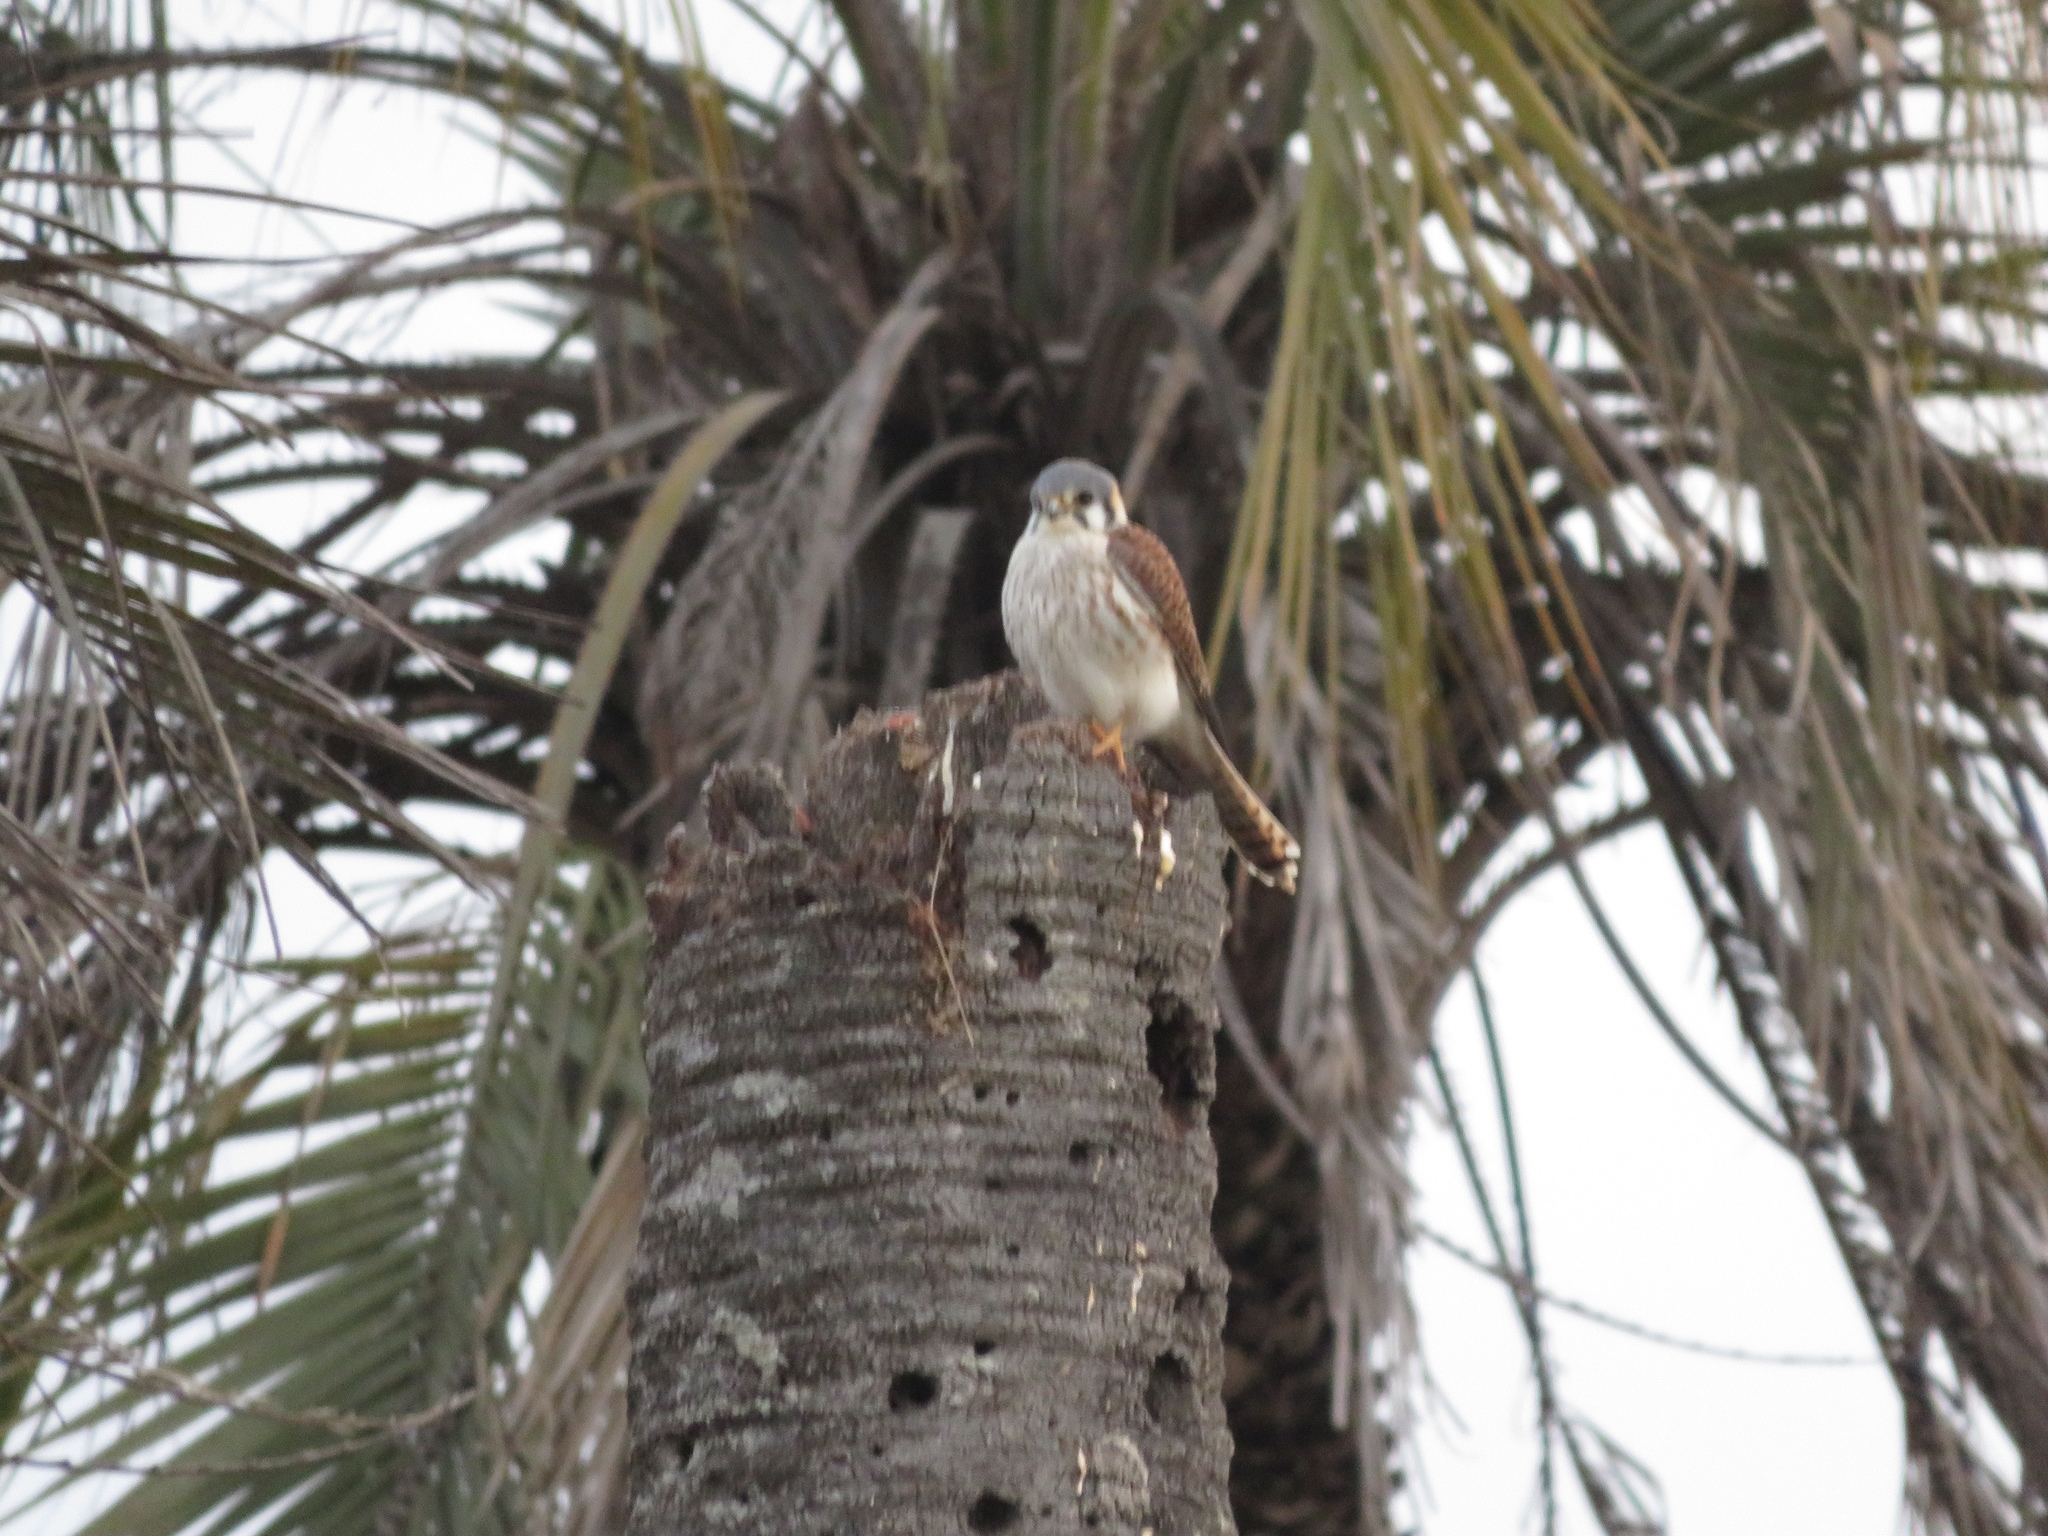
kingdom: Animalia
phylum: Chordata
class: Aves
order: Falconiformes
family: Falconidae
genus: Falco
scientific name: Falco sparverius
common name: American kestrel
